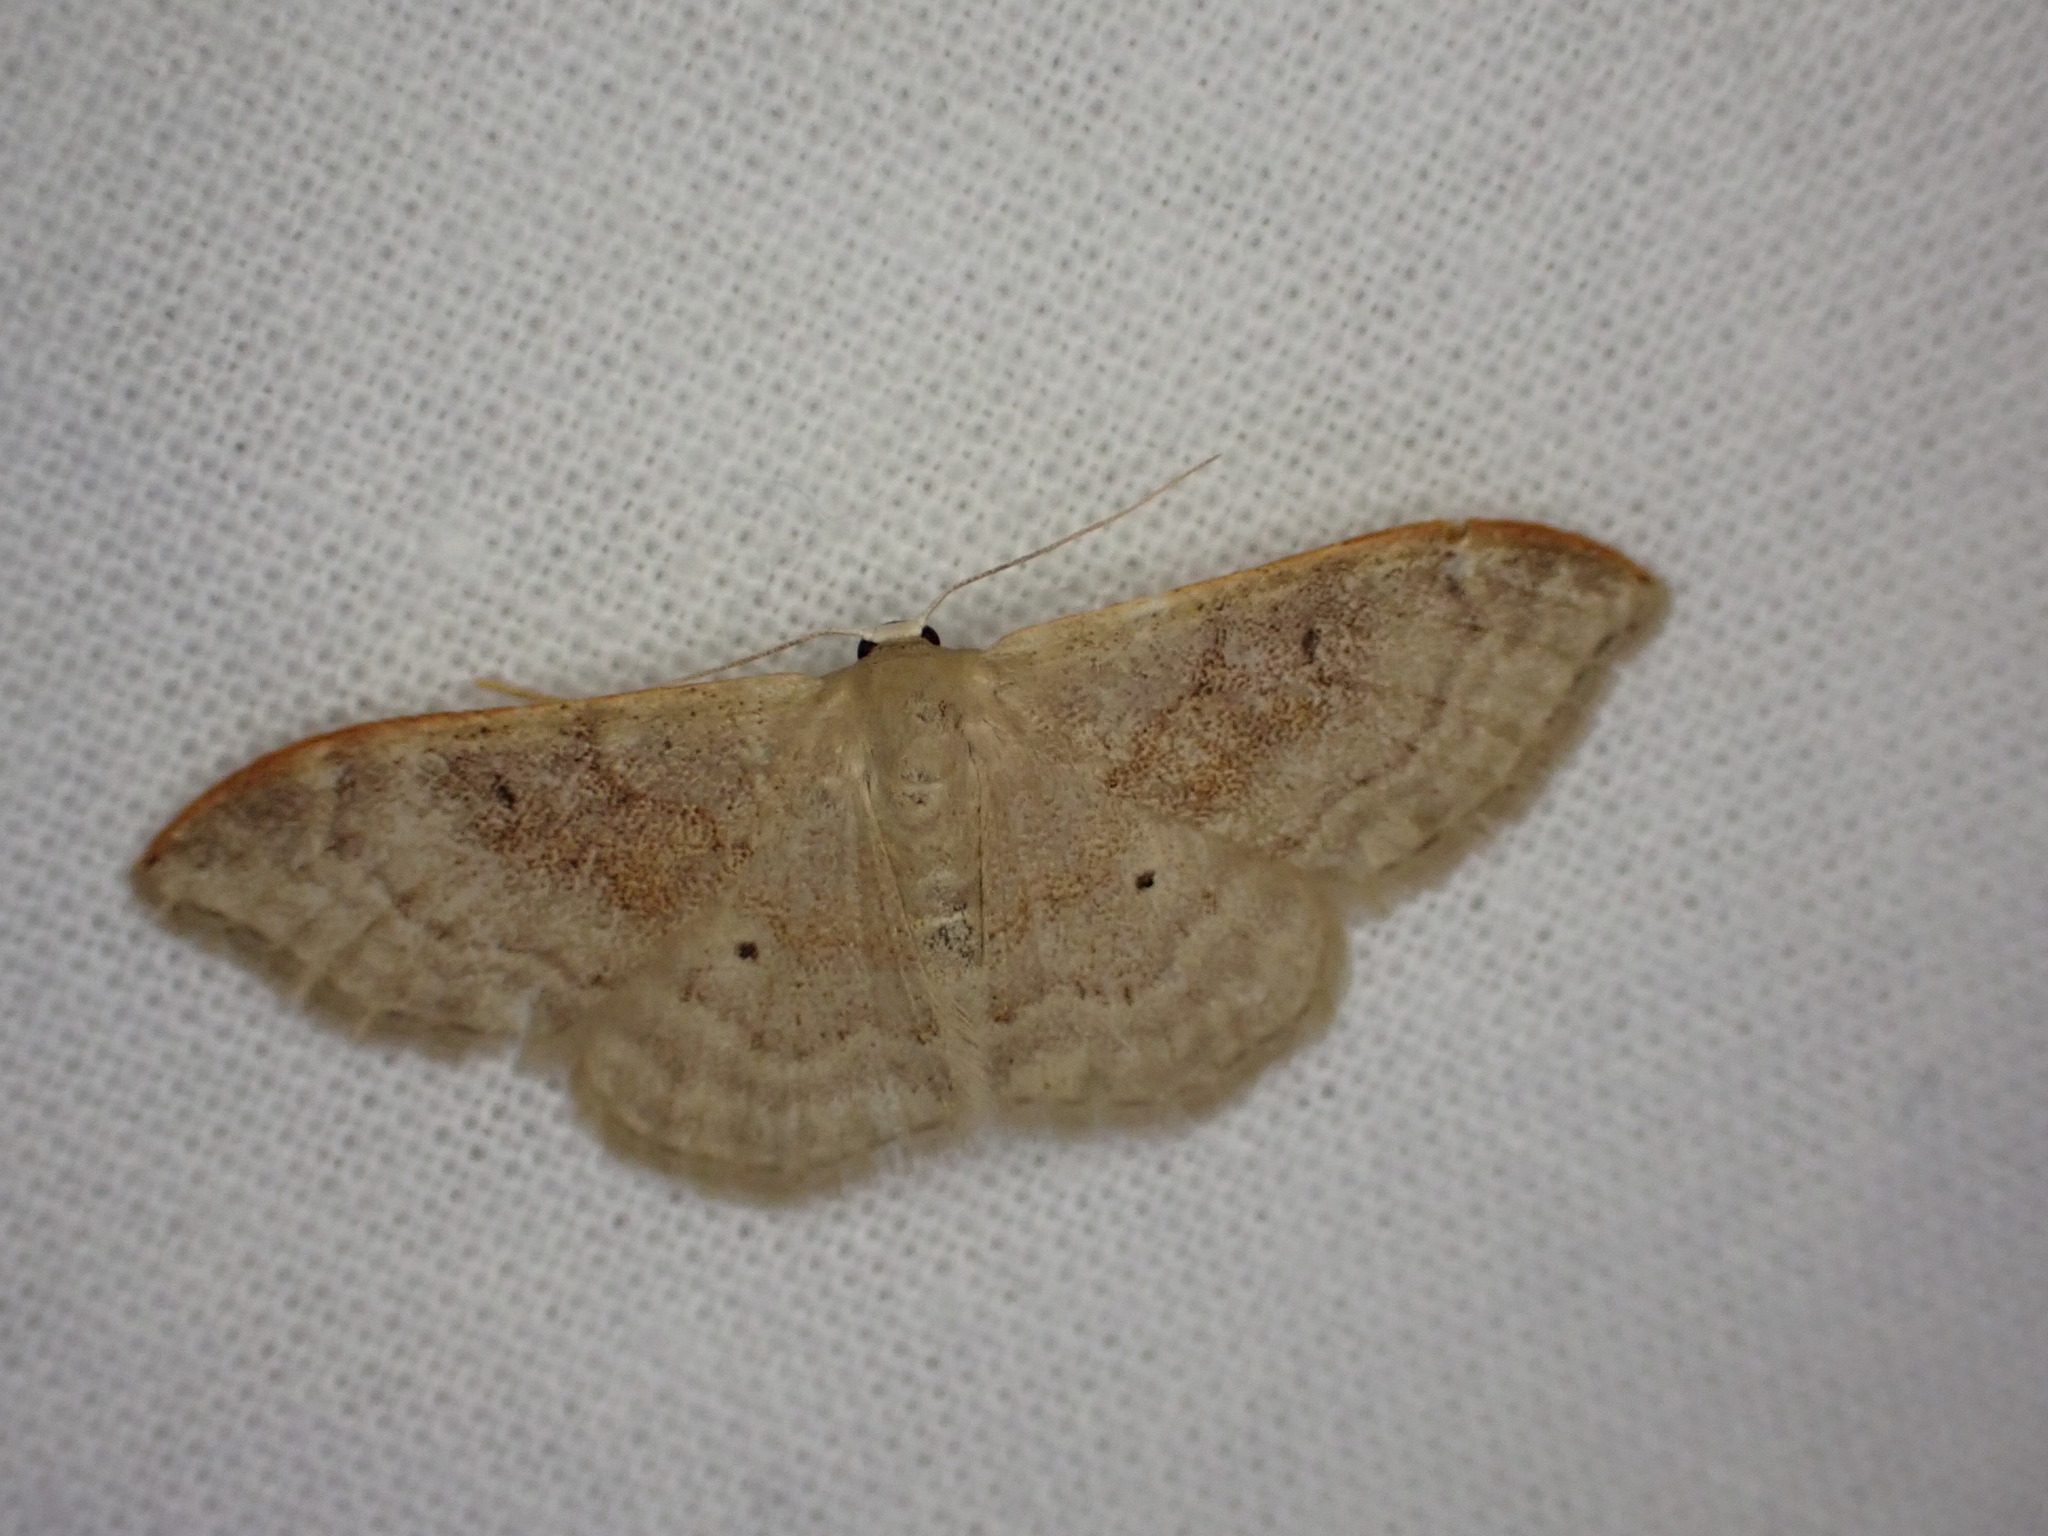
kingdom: Animalia
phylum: Arthropoda
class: Insecta
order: Lepidoptera
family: Geometridae
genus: Idaea
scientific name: Idaea degeneraria
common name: Portland ribbon wave
